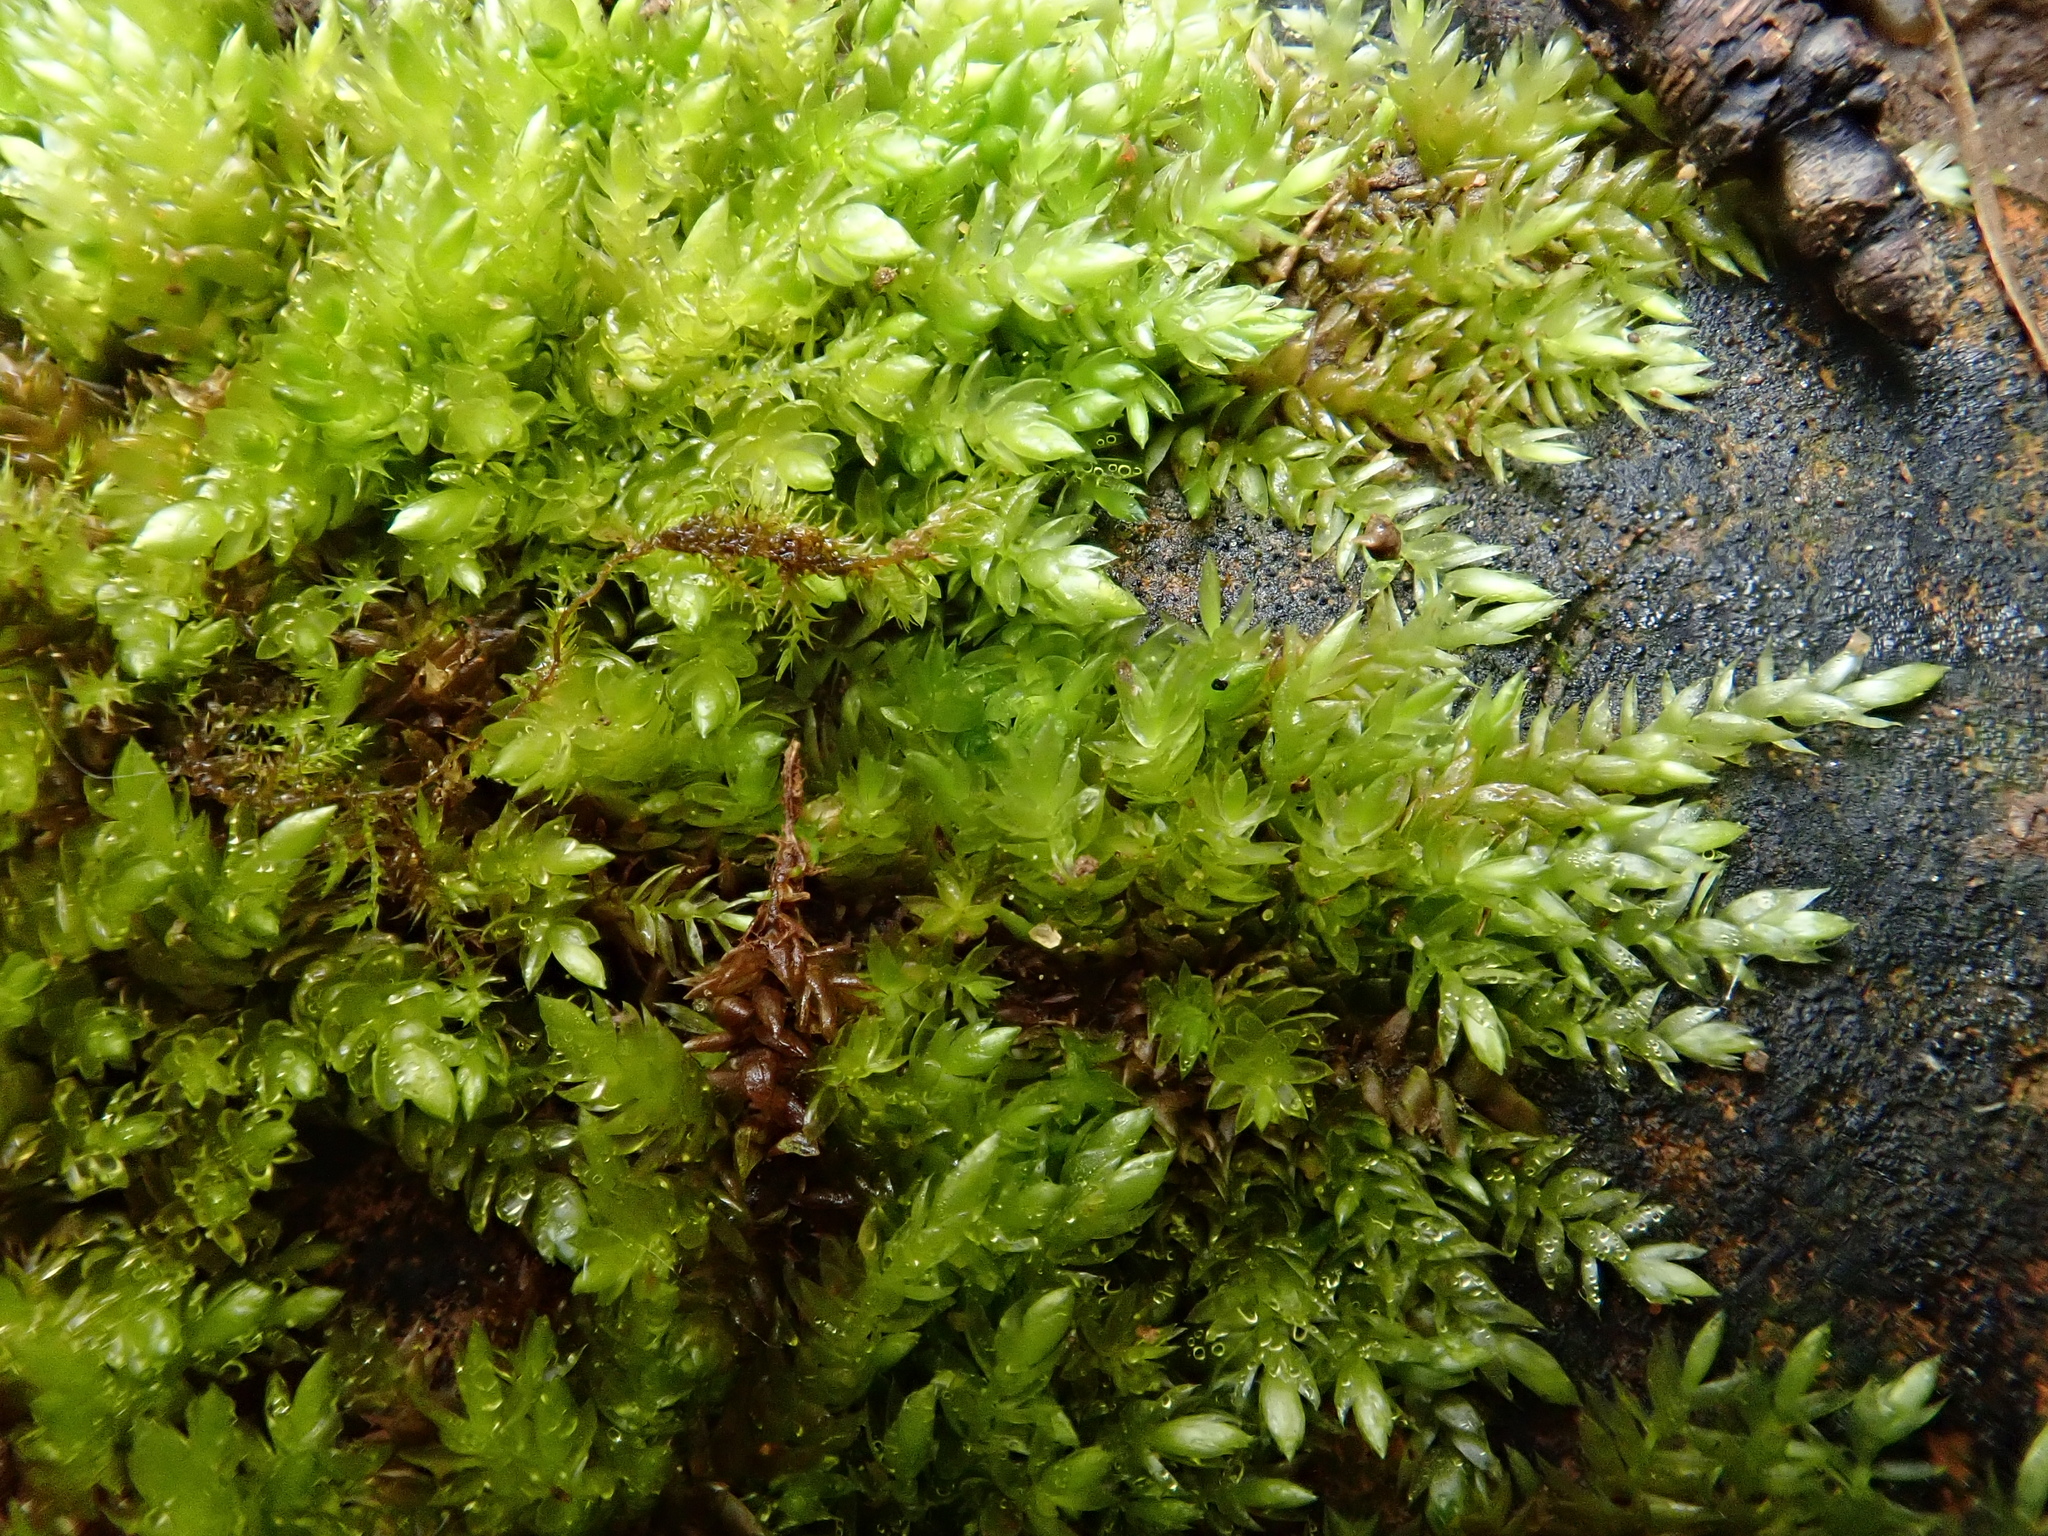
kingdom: Plantae
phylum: Bryophyta
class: Bryopsida
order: Hypnales
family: Brachytheciaceae
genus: Rhynchostegium
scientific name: Rhynchostegium murale
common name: Wall feather-moss
